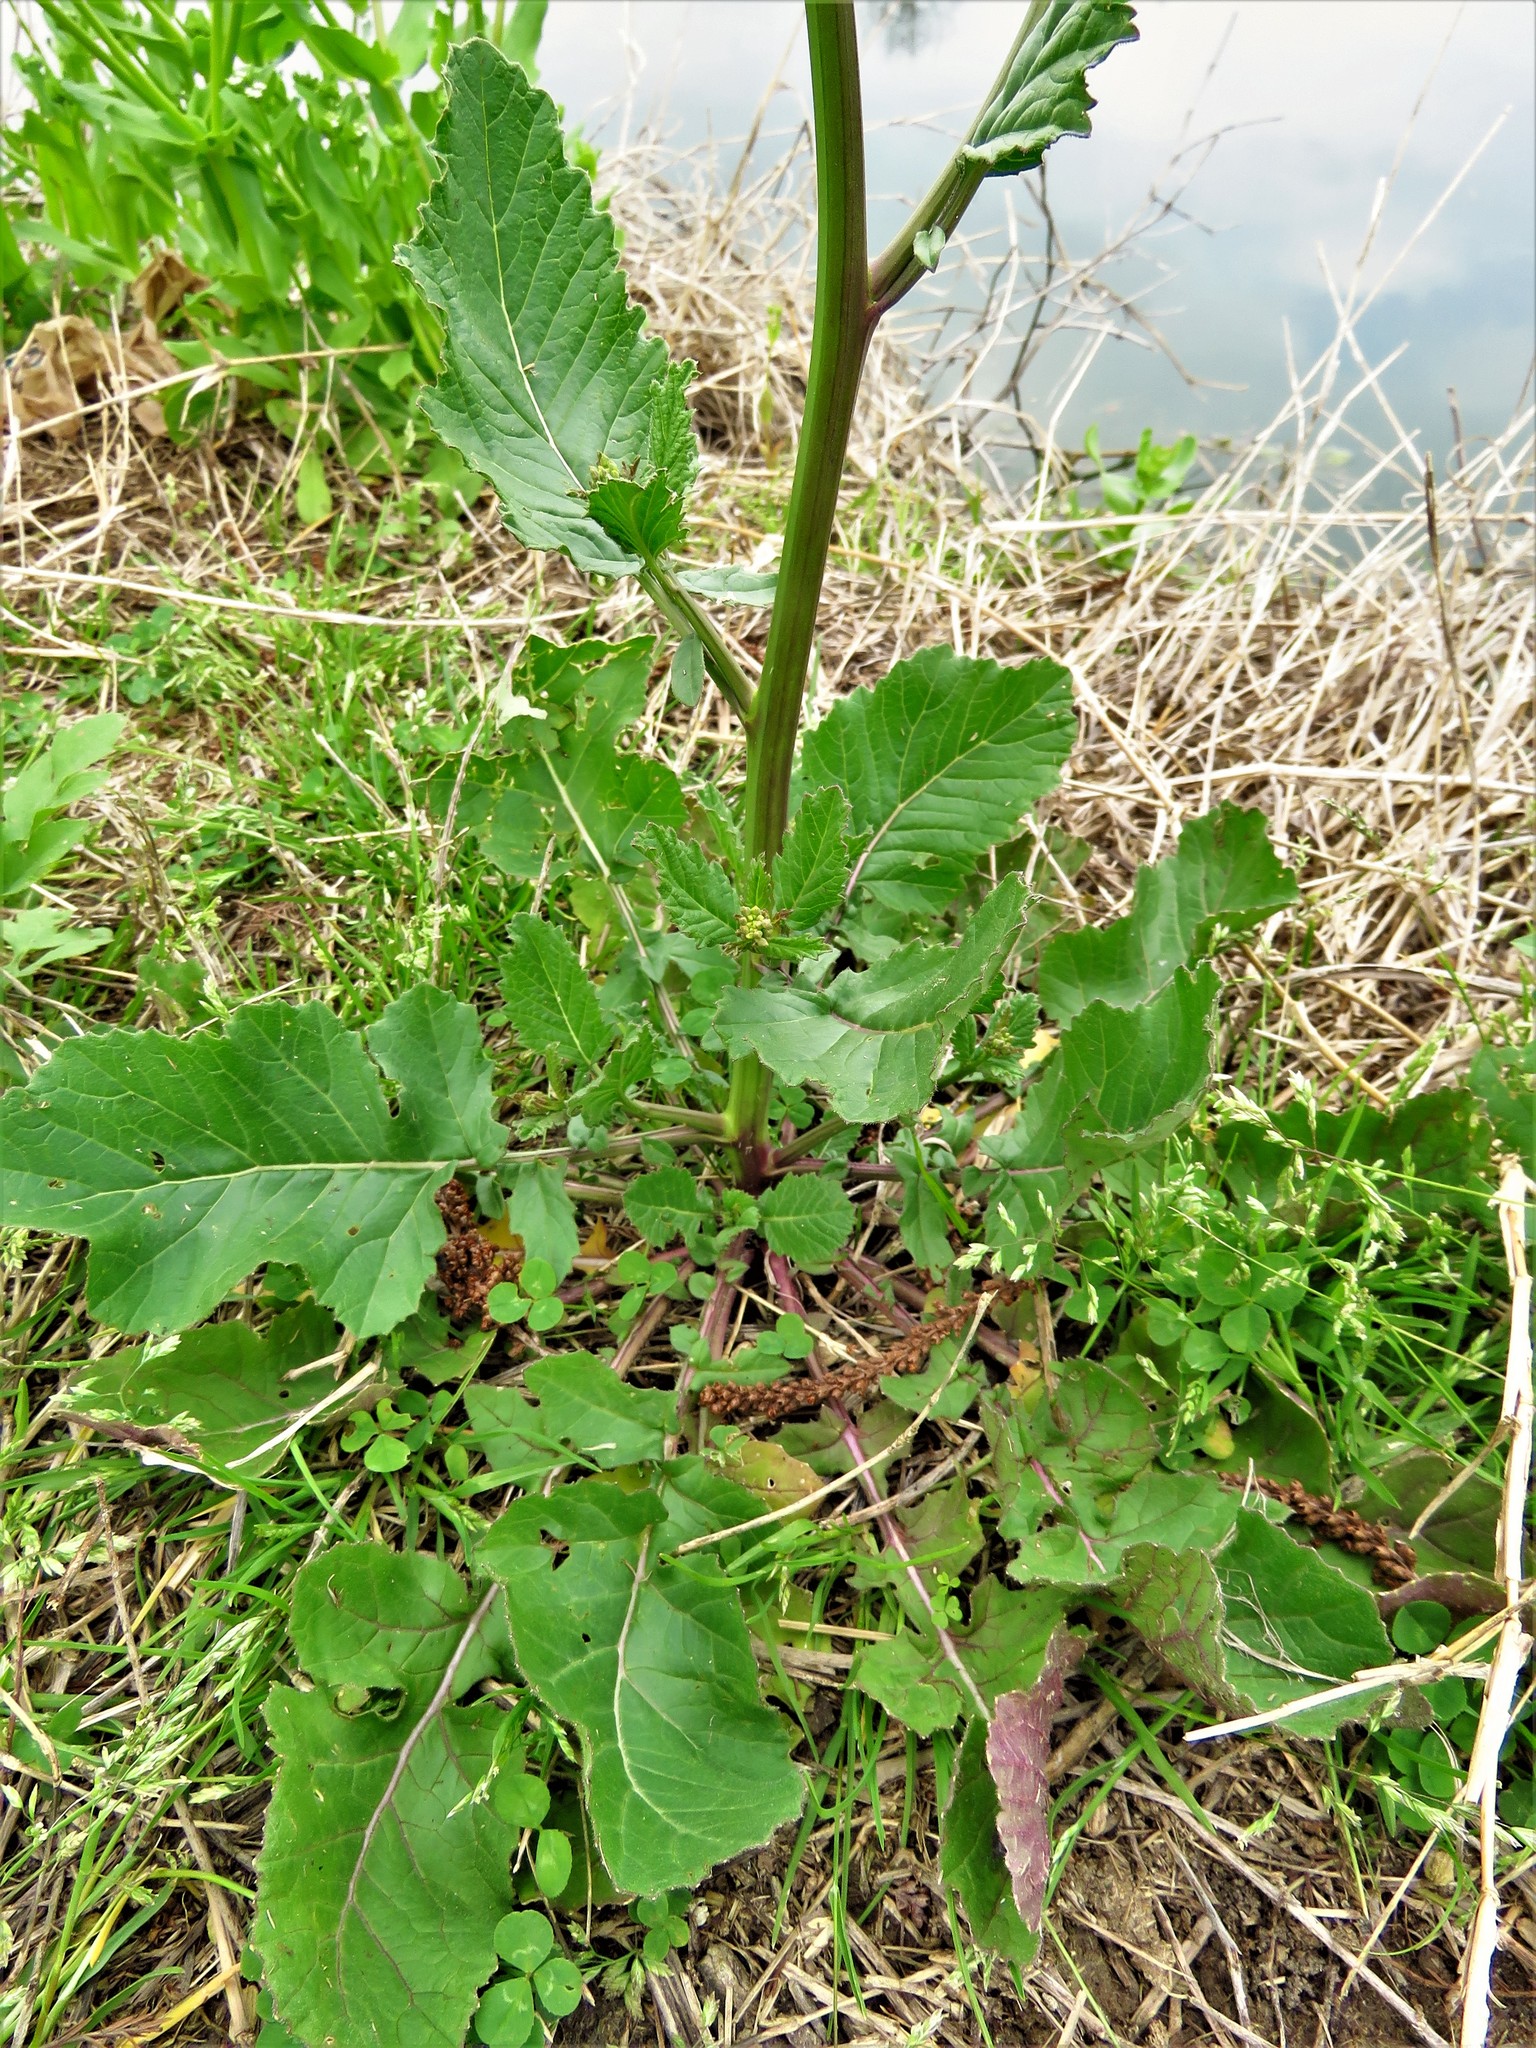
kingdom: Plantae
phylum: Tracheophyta
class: Magnoliopsida
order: Brassicales
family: Brassicaceae
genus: Rapistrum
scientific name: Rapistrum rugosum
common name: Annual bastardcabbage
